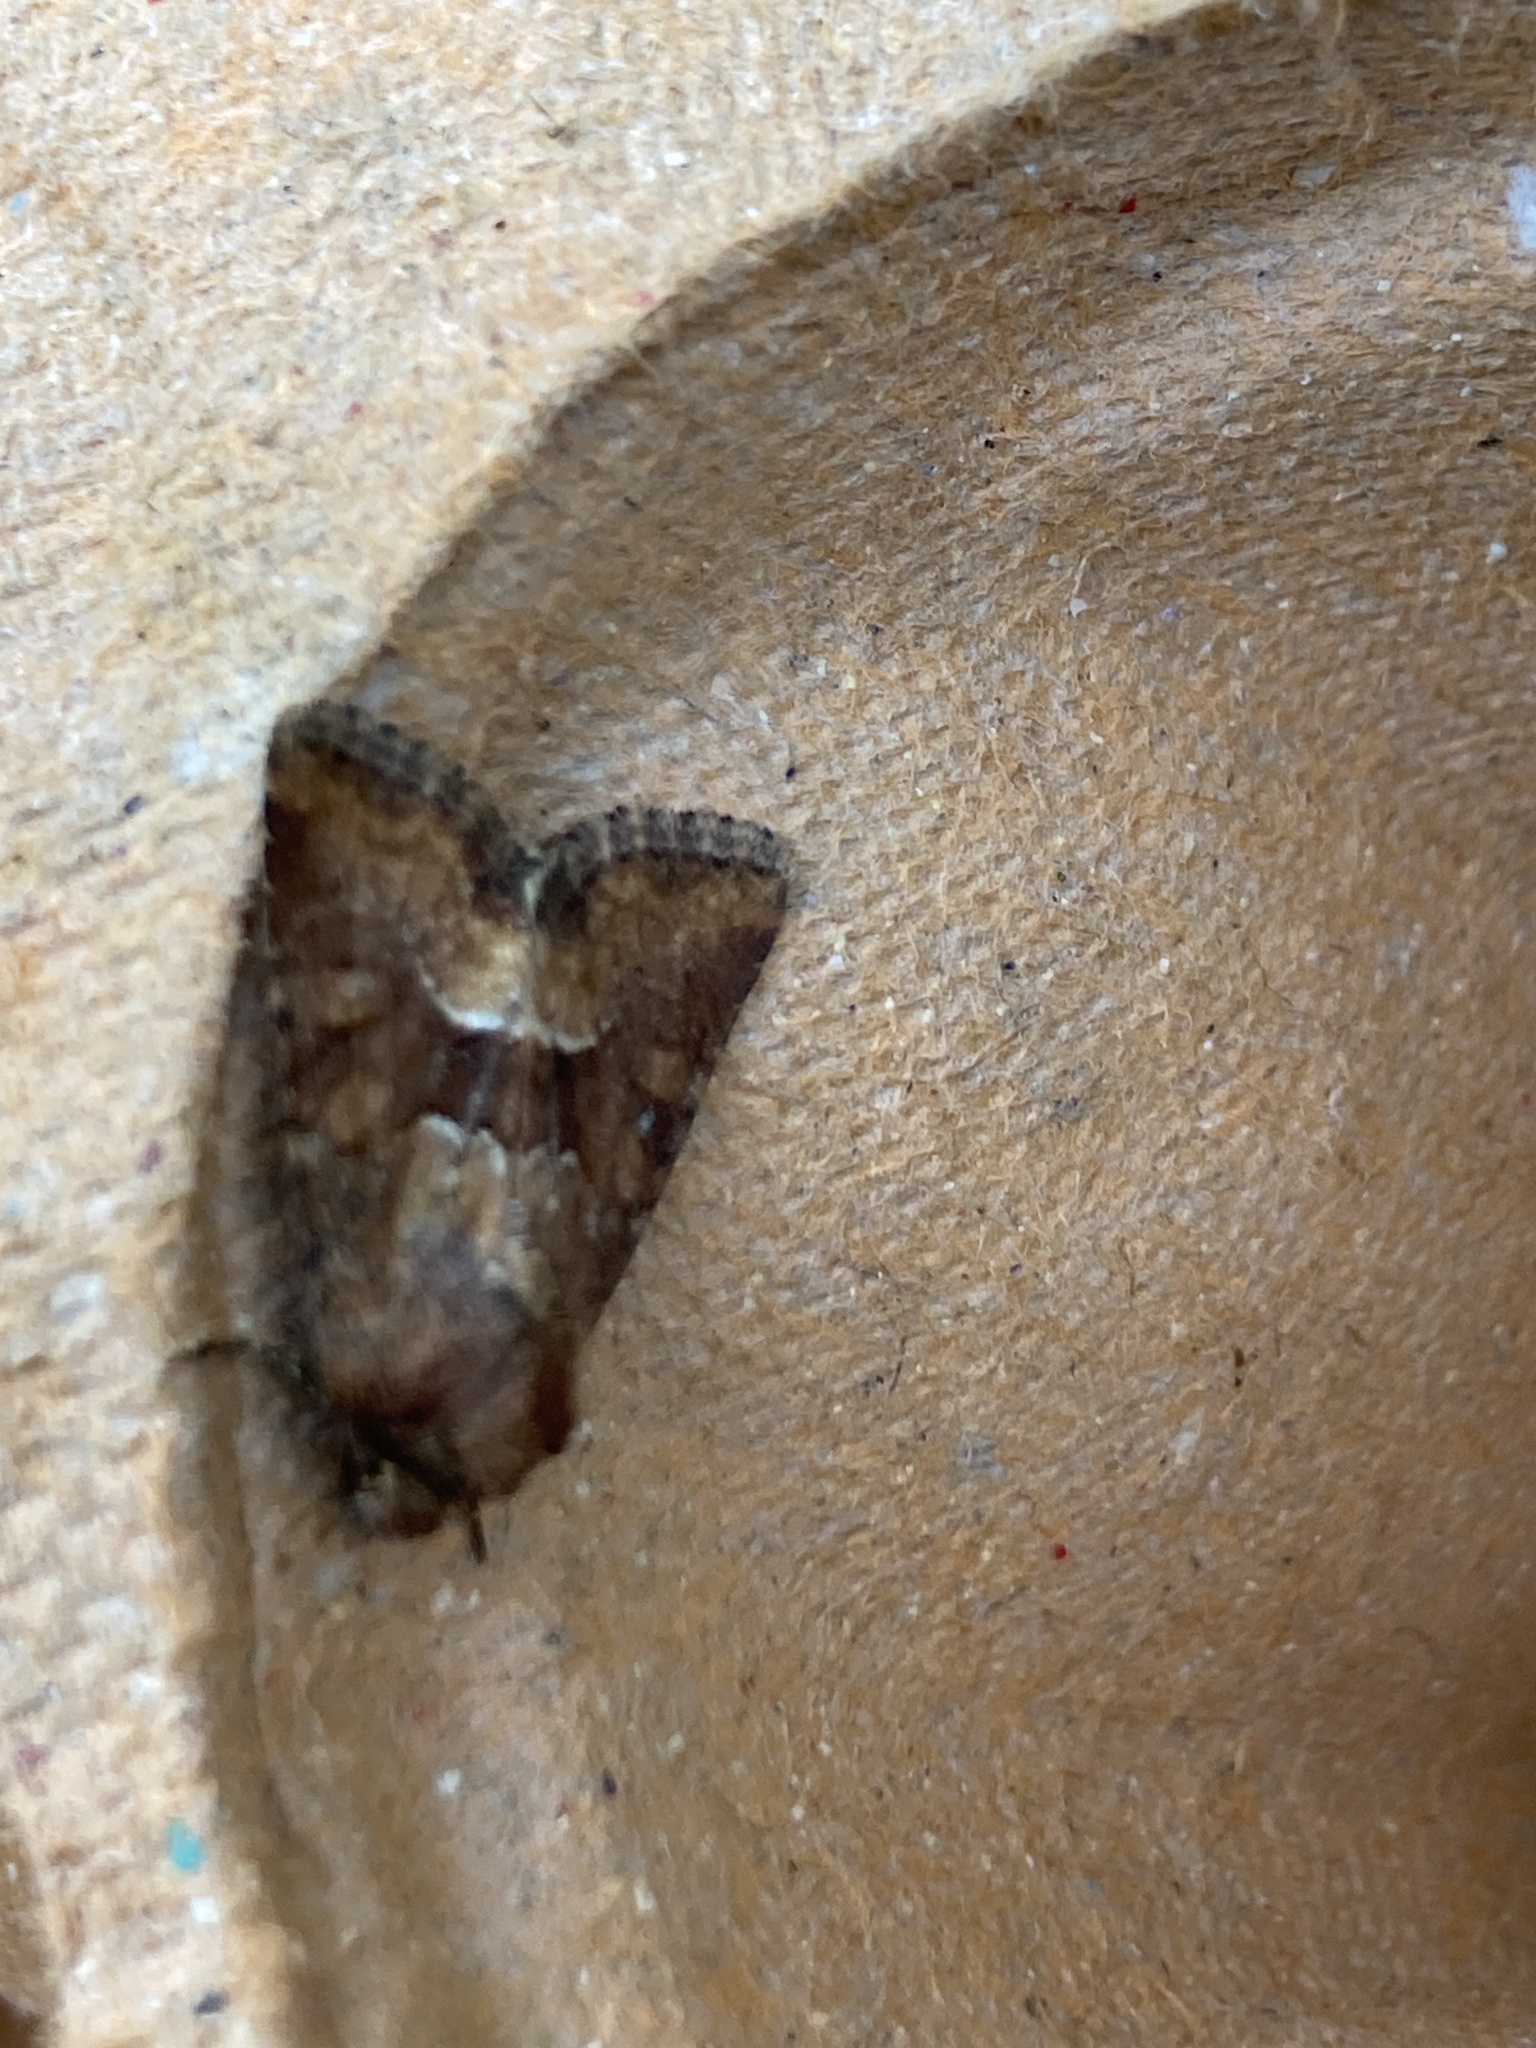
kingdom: Animalia
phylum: Arthropoda
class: Insecta
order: Lepidoptera
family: Noctuidae
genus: Oligia
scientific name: Oligia fasciuncula
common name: Middle-barred minor
